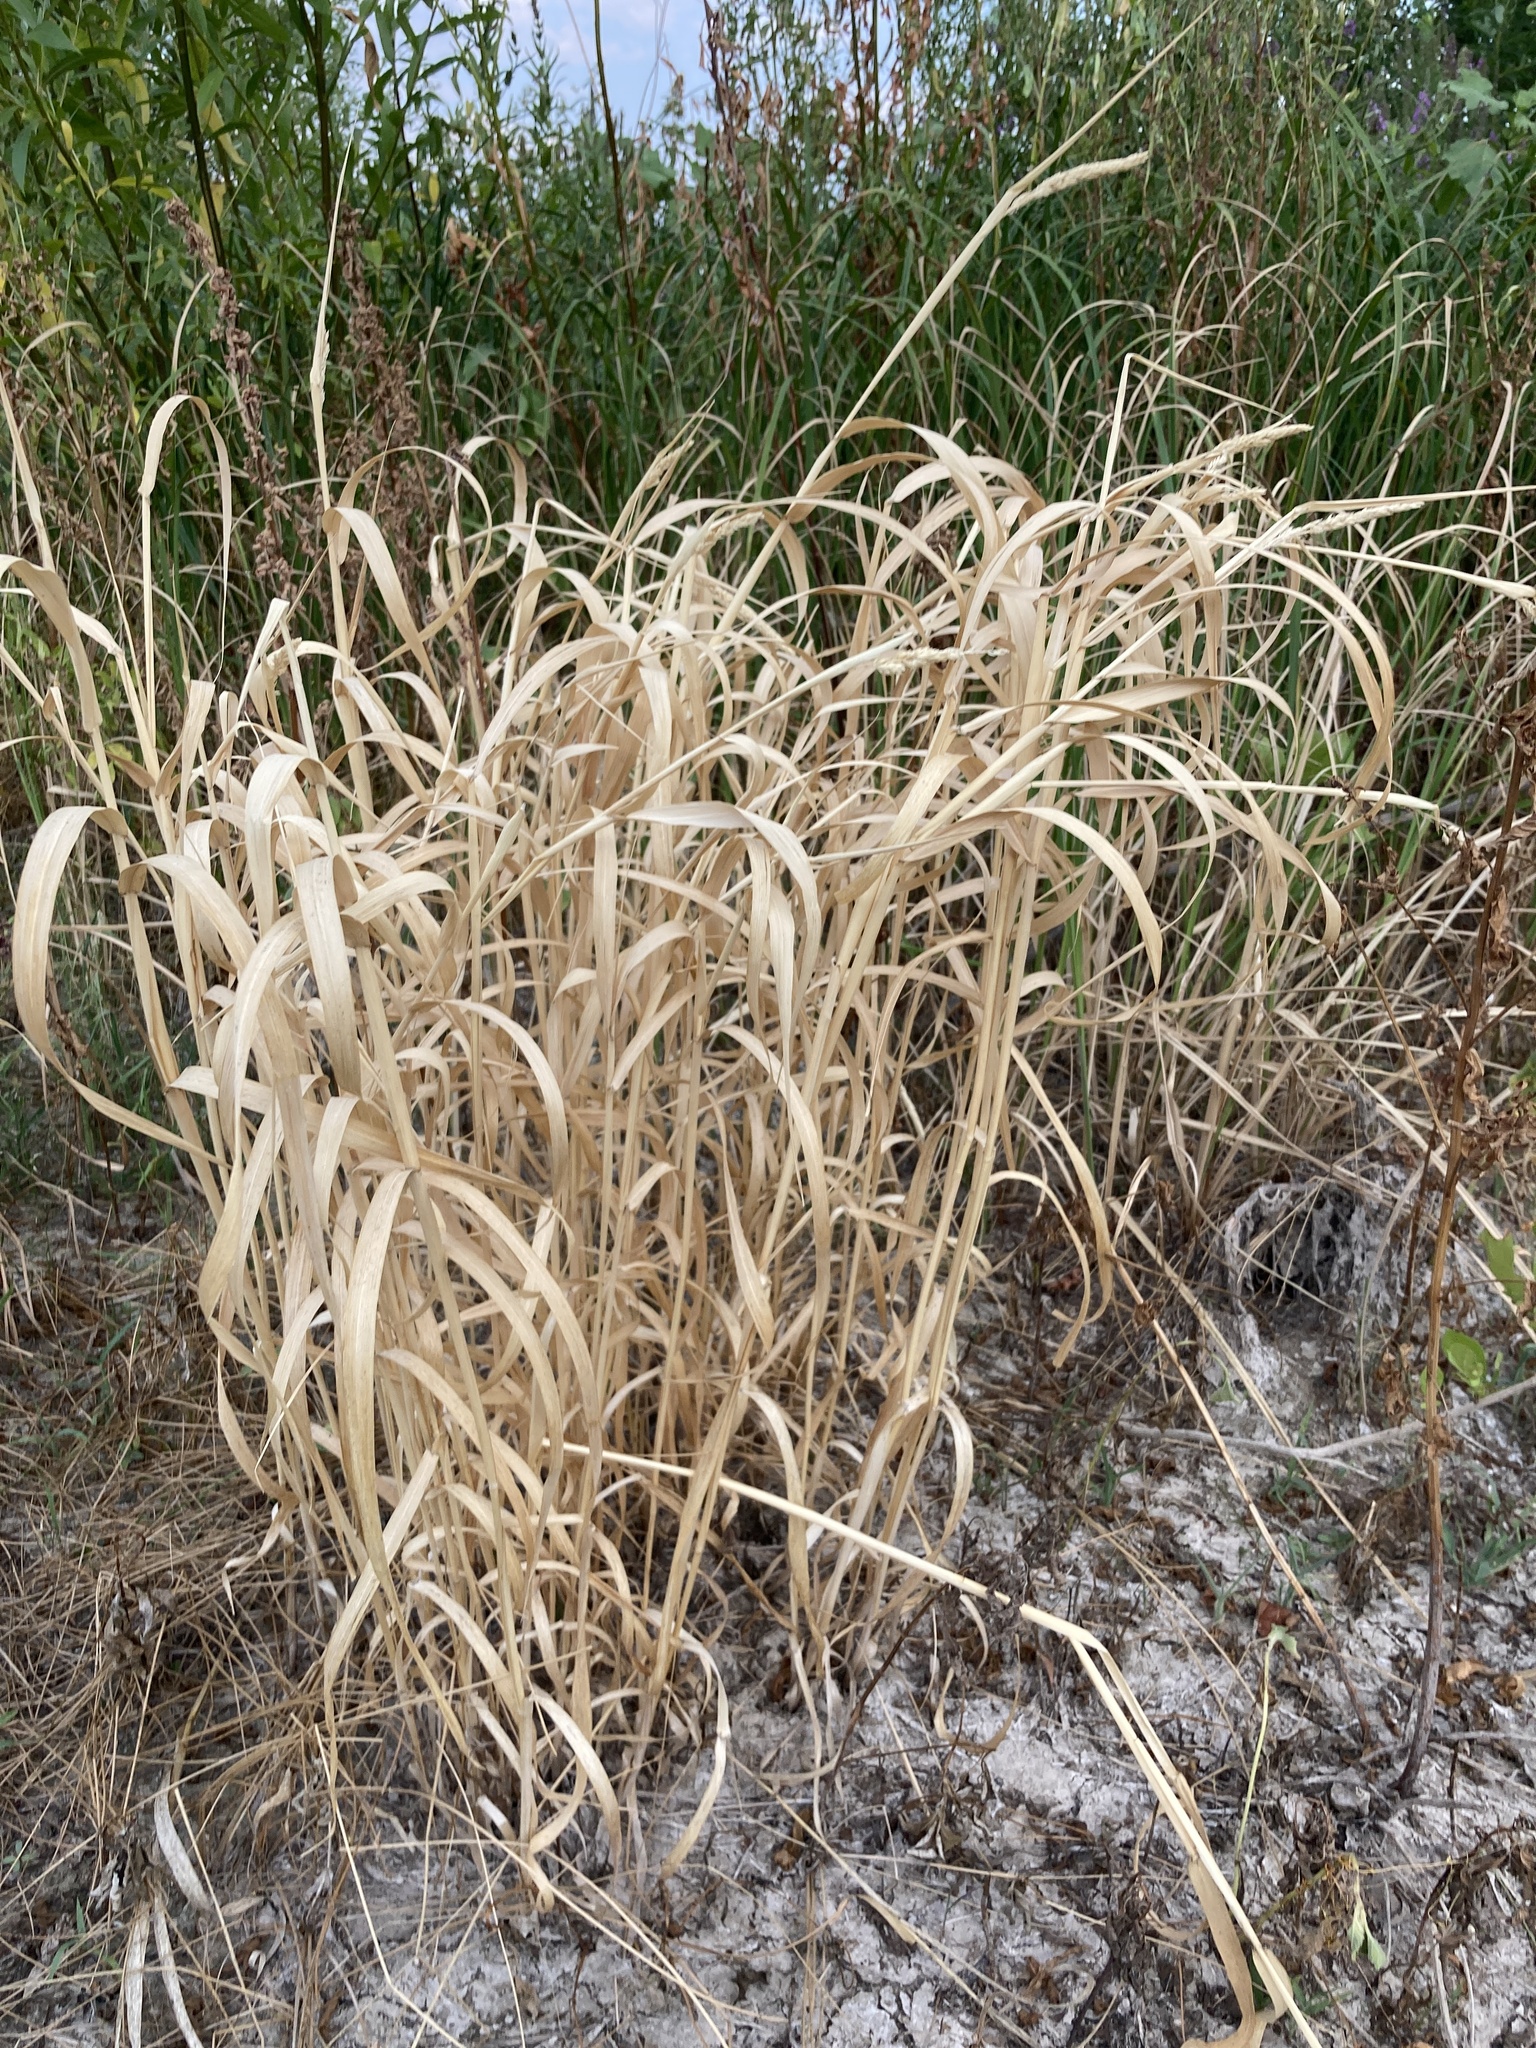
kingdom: Plantae
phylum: Tracheophyta
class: Liliopsida
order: Poales
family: Poaceae
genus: Phalaris
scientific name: Phalaris arundinacea
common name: Reed canary-grass
